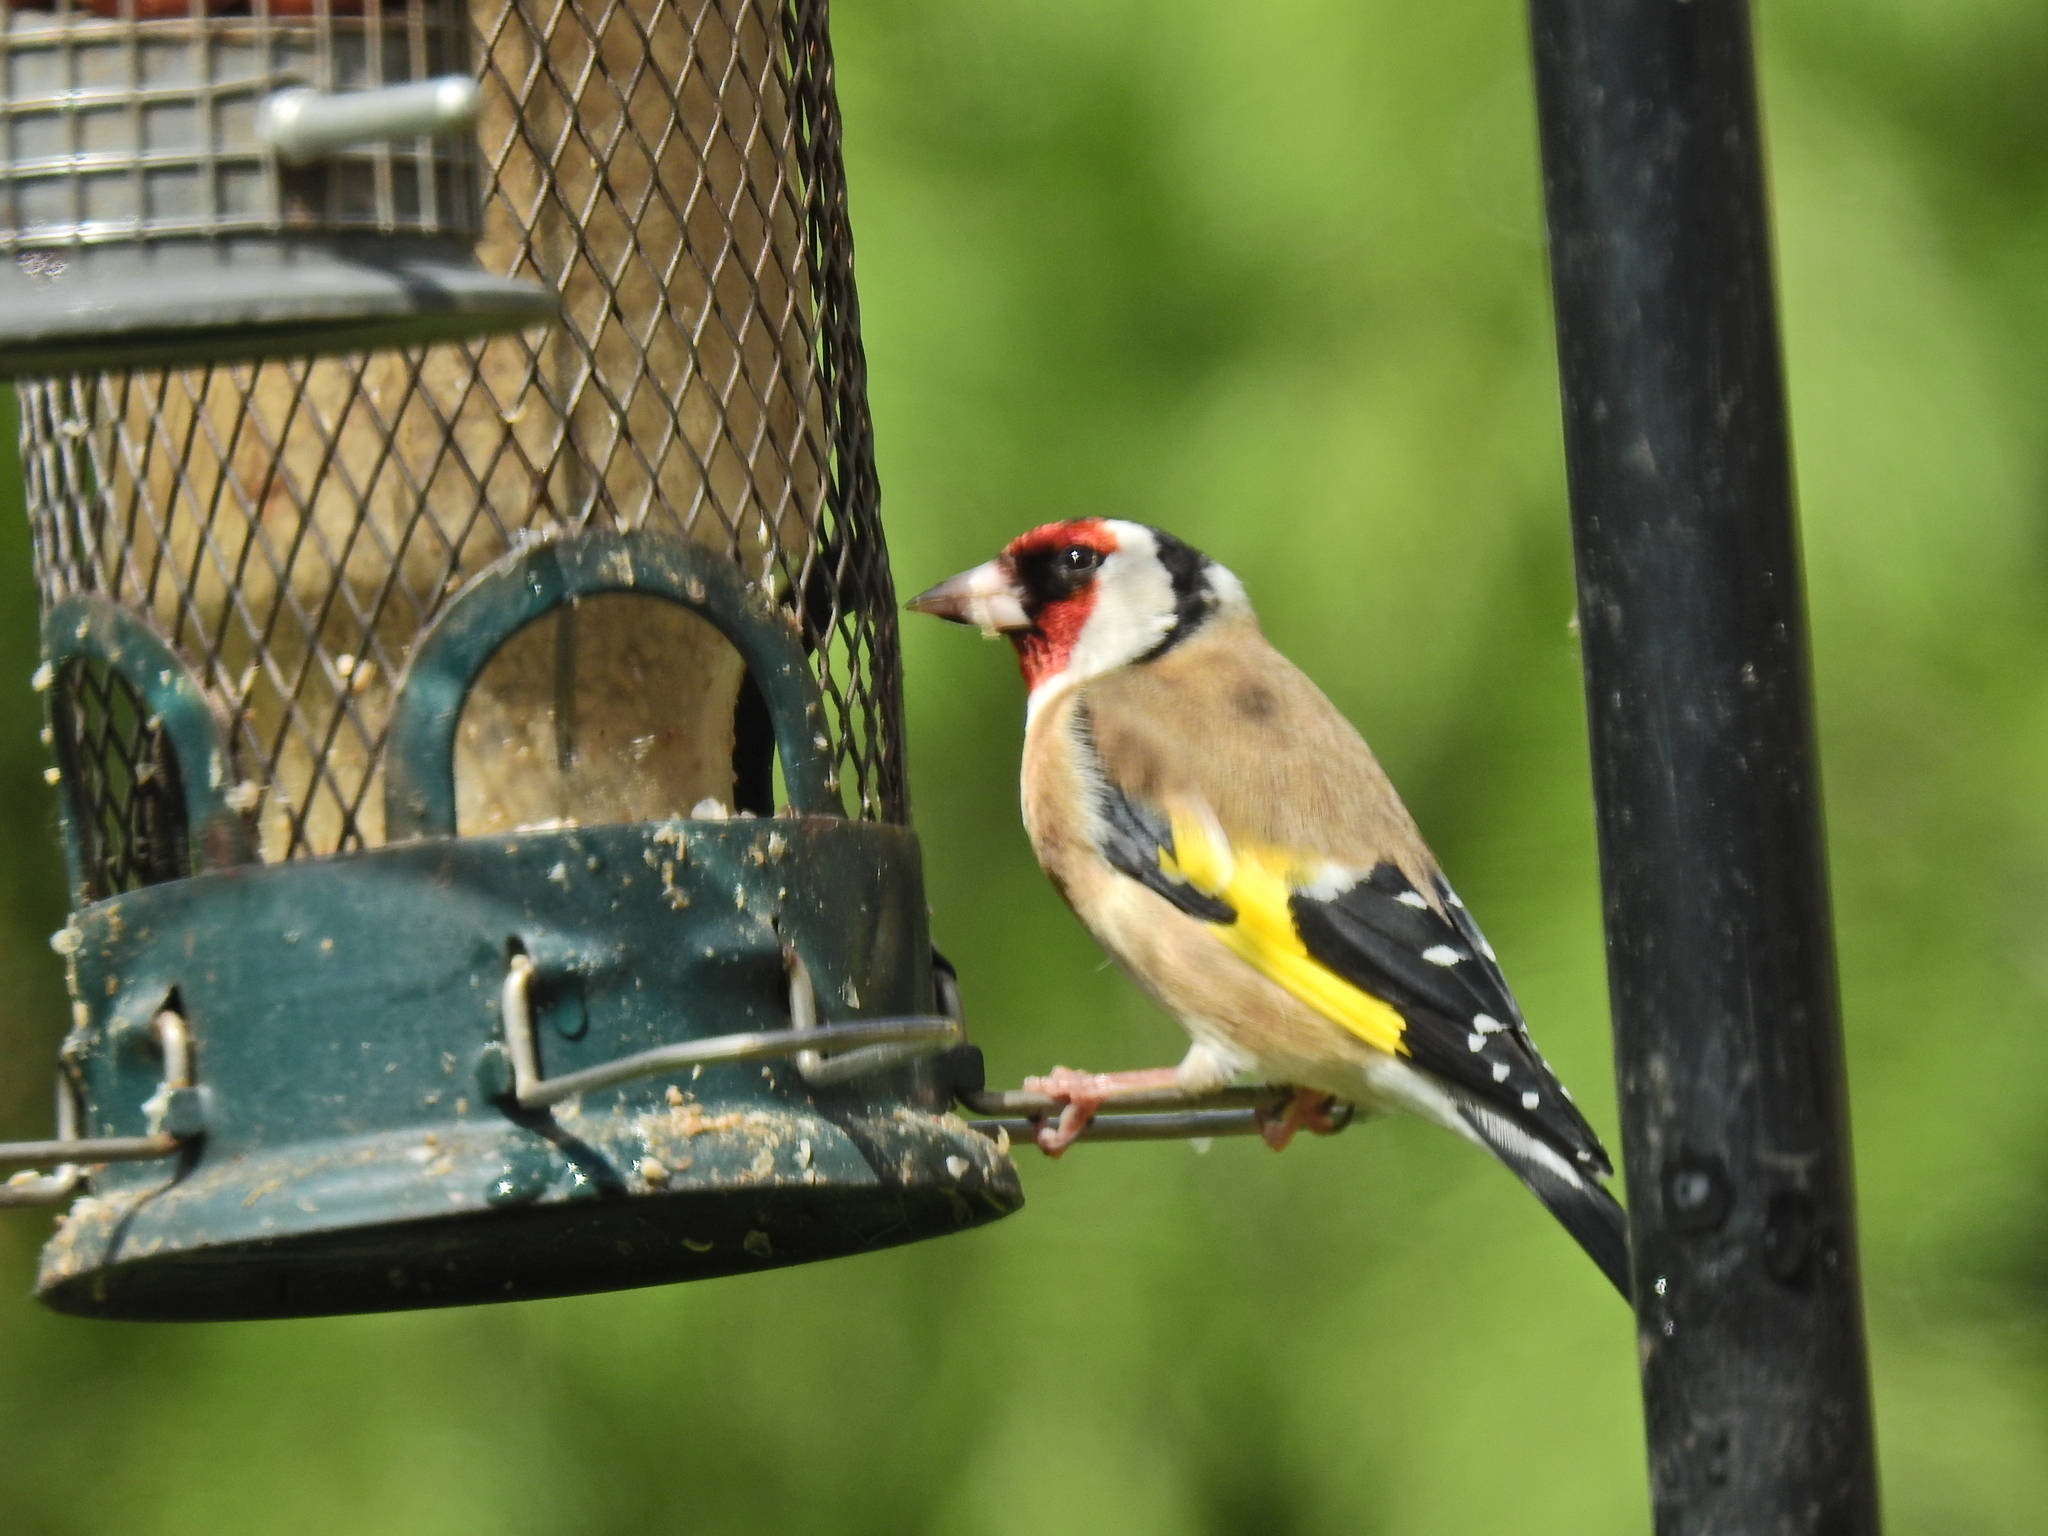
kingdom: Animalia
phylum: Chordata
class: Aves
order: Passeriformes
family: Fringillidae
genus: Carduelis
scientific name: Carduelis carduelis
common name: European goldfinch
